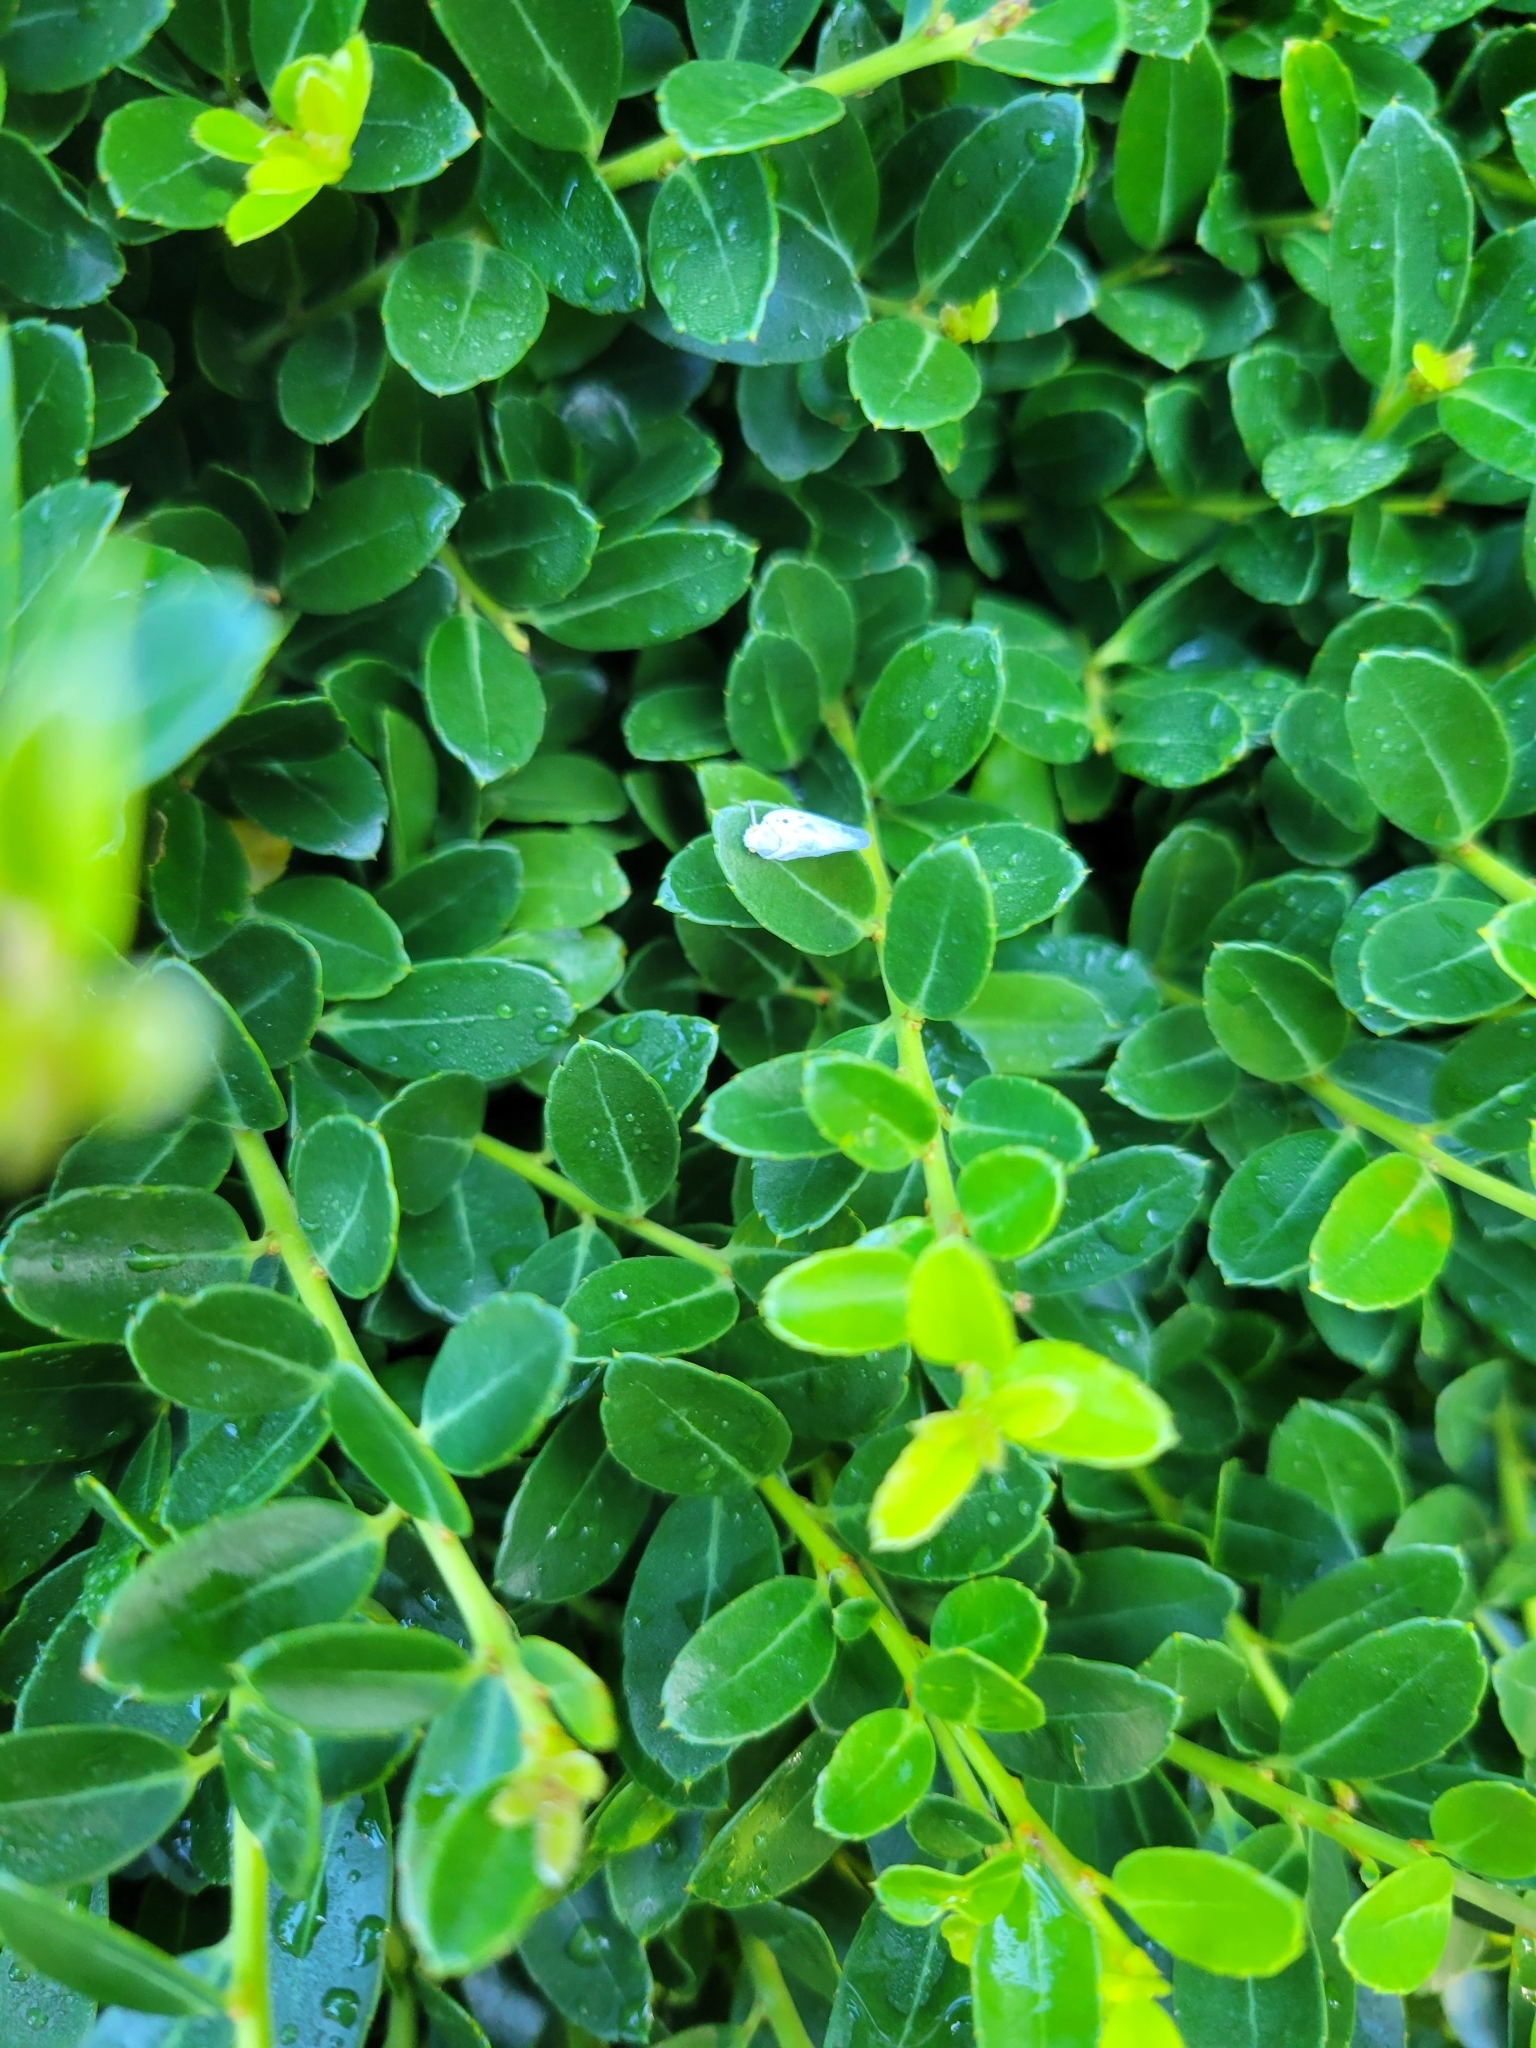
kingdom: Animalia
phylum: Arthropoda
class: Insecta
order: Hemiptera
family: Flatidae
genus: Metcalfa
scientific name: Metcalfa pruinosa
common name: Citrus flatid planthopper
